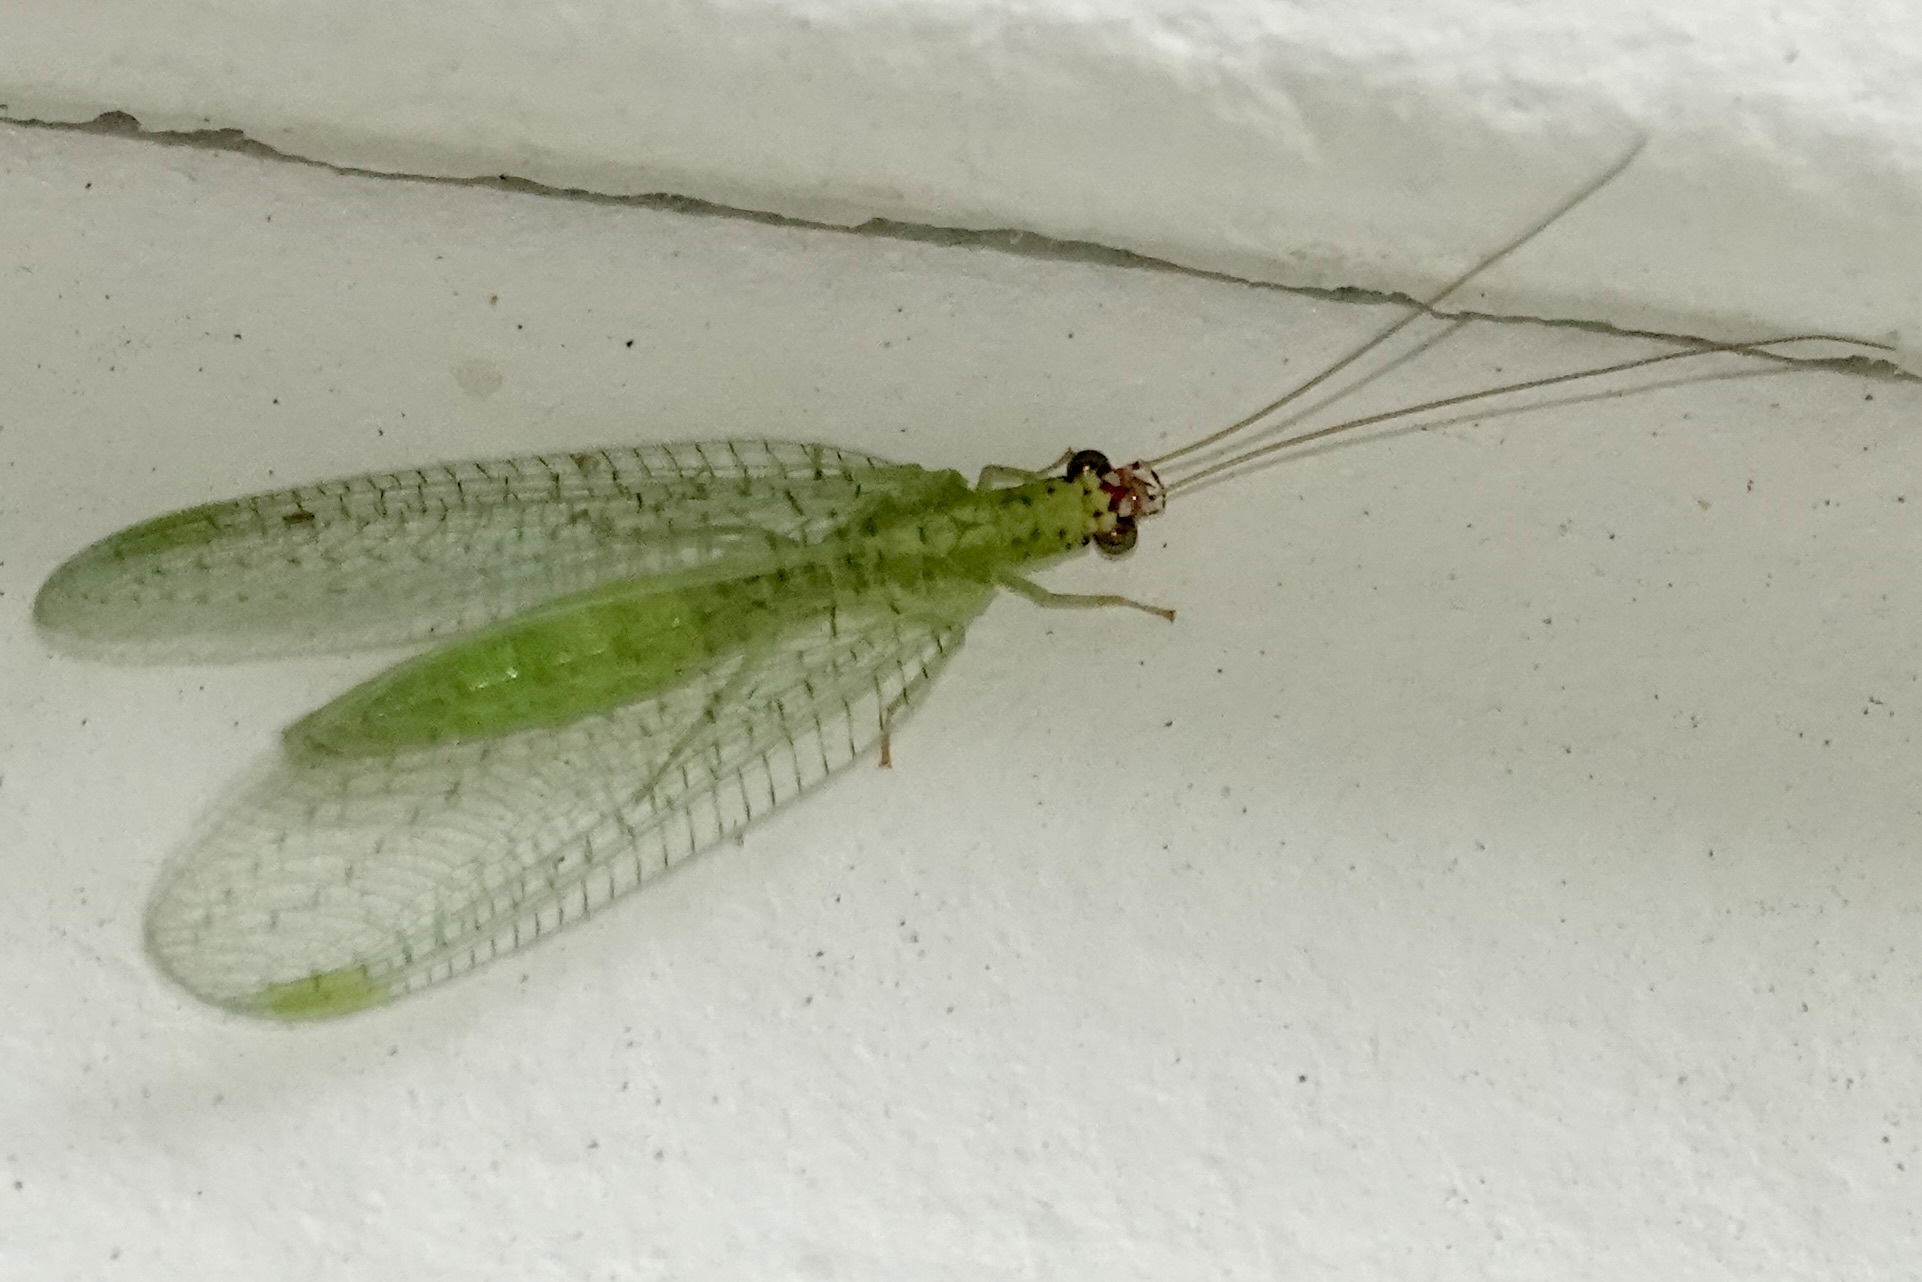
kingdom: Animalia
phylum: Arthropoda
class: Insecta
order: Neuroptera
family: Chrysopidae
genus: Chrysopa
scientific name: Chrysopa oculata
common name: Golden-eyed lacewing
